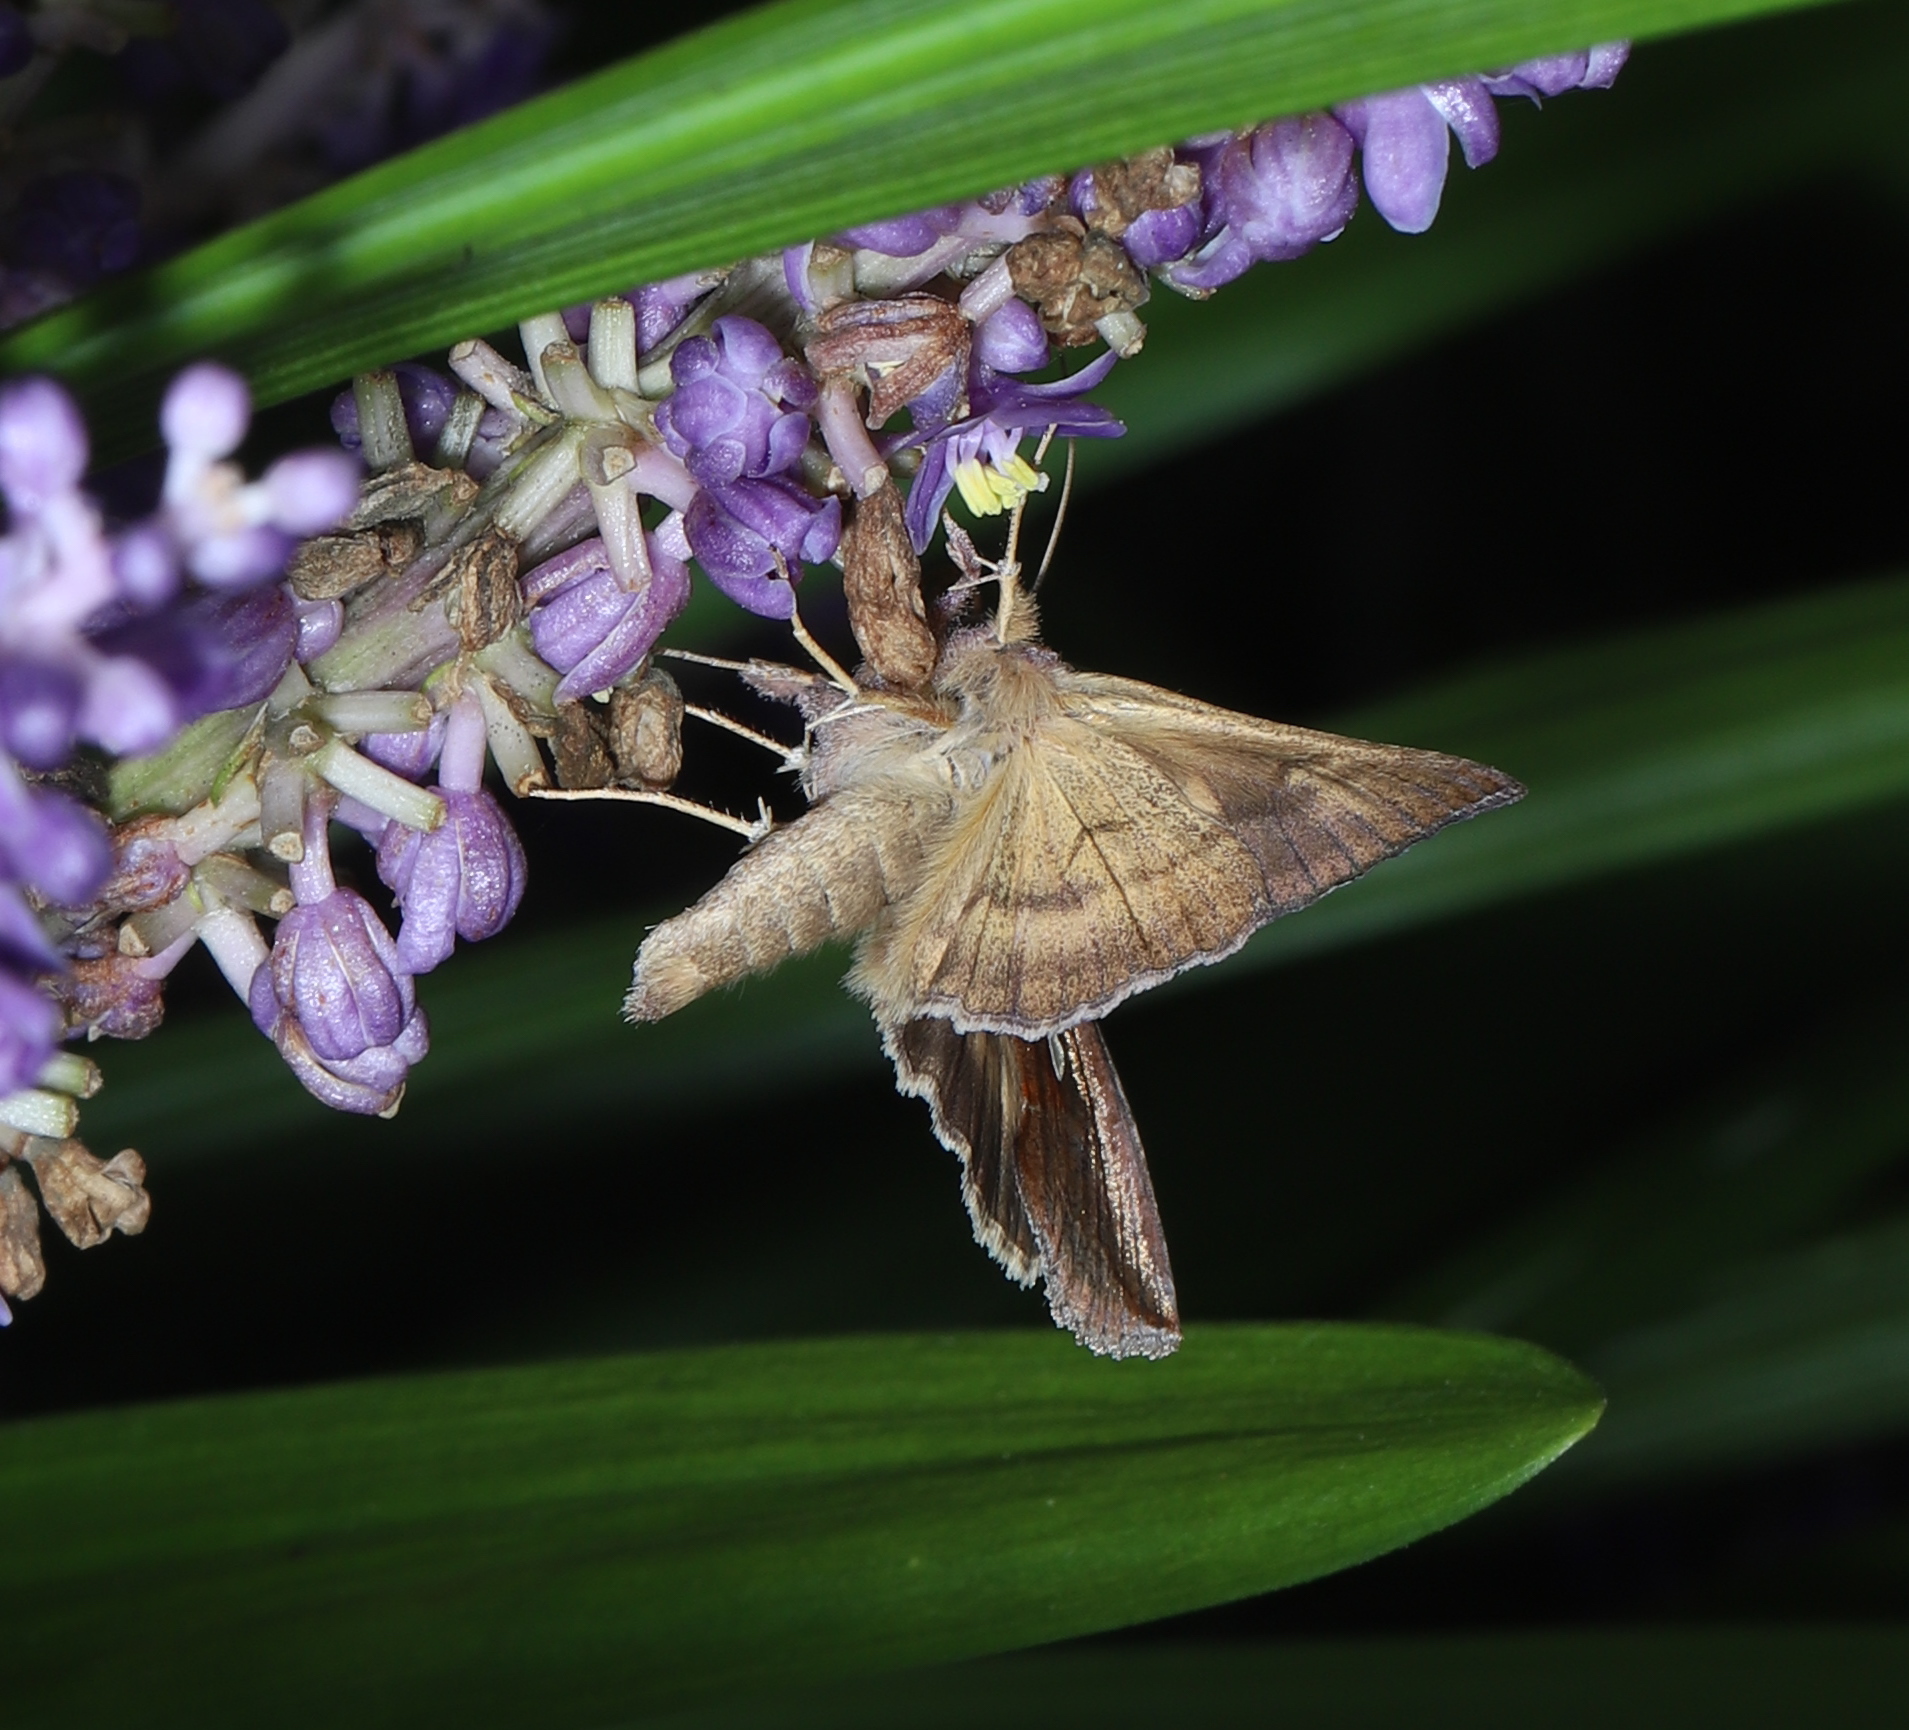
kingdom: Animalia
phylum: Arthropoda
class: Insecta
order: Lepidoptera
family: Noctuidae
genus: Anagrapha
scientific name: Anagrapha falcifera
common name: Celery looper
